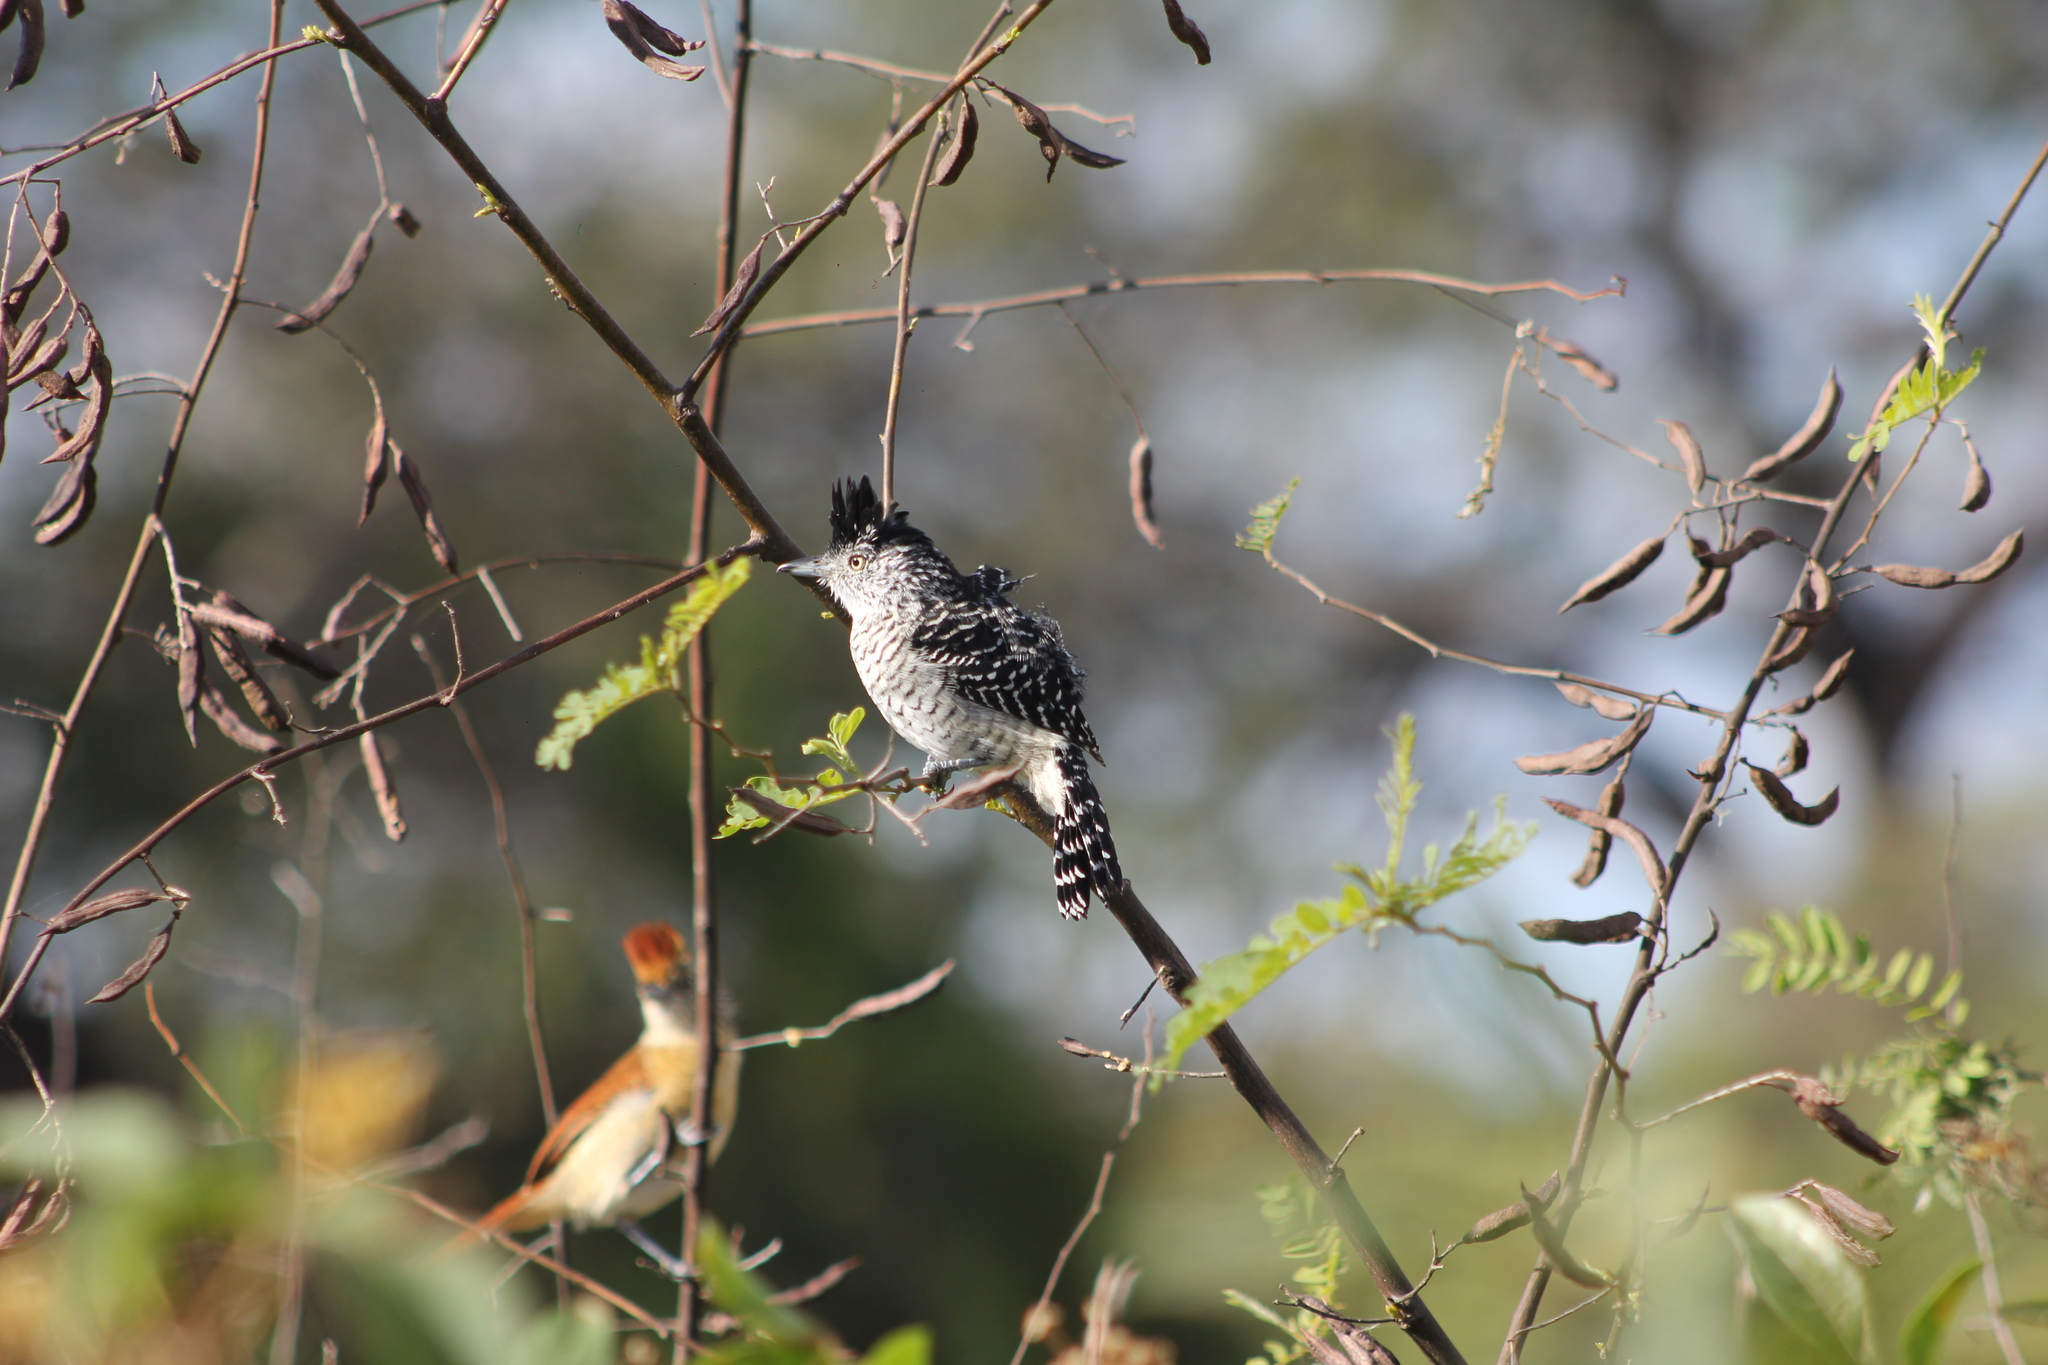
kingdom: Animalia
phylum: Chordata
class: Aves
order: Passeriformes
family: Thamnophilidae
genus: Thamnophilus
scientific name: Thamnophilus doliatus
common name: Barred antshrike
